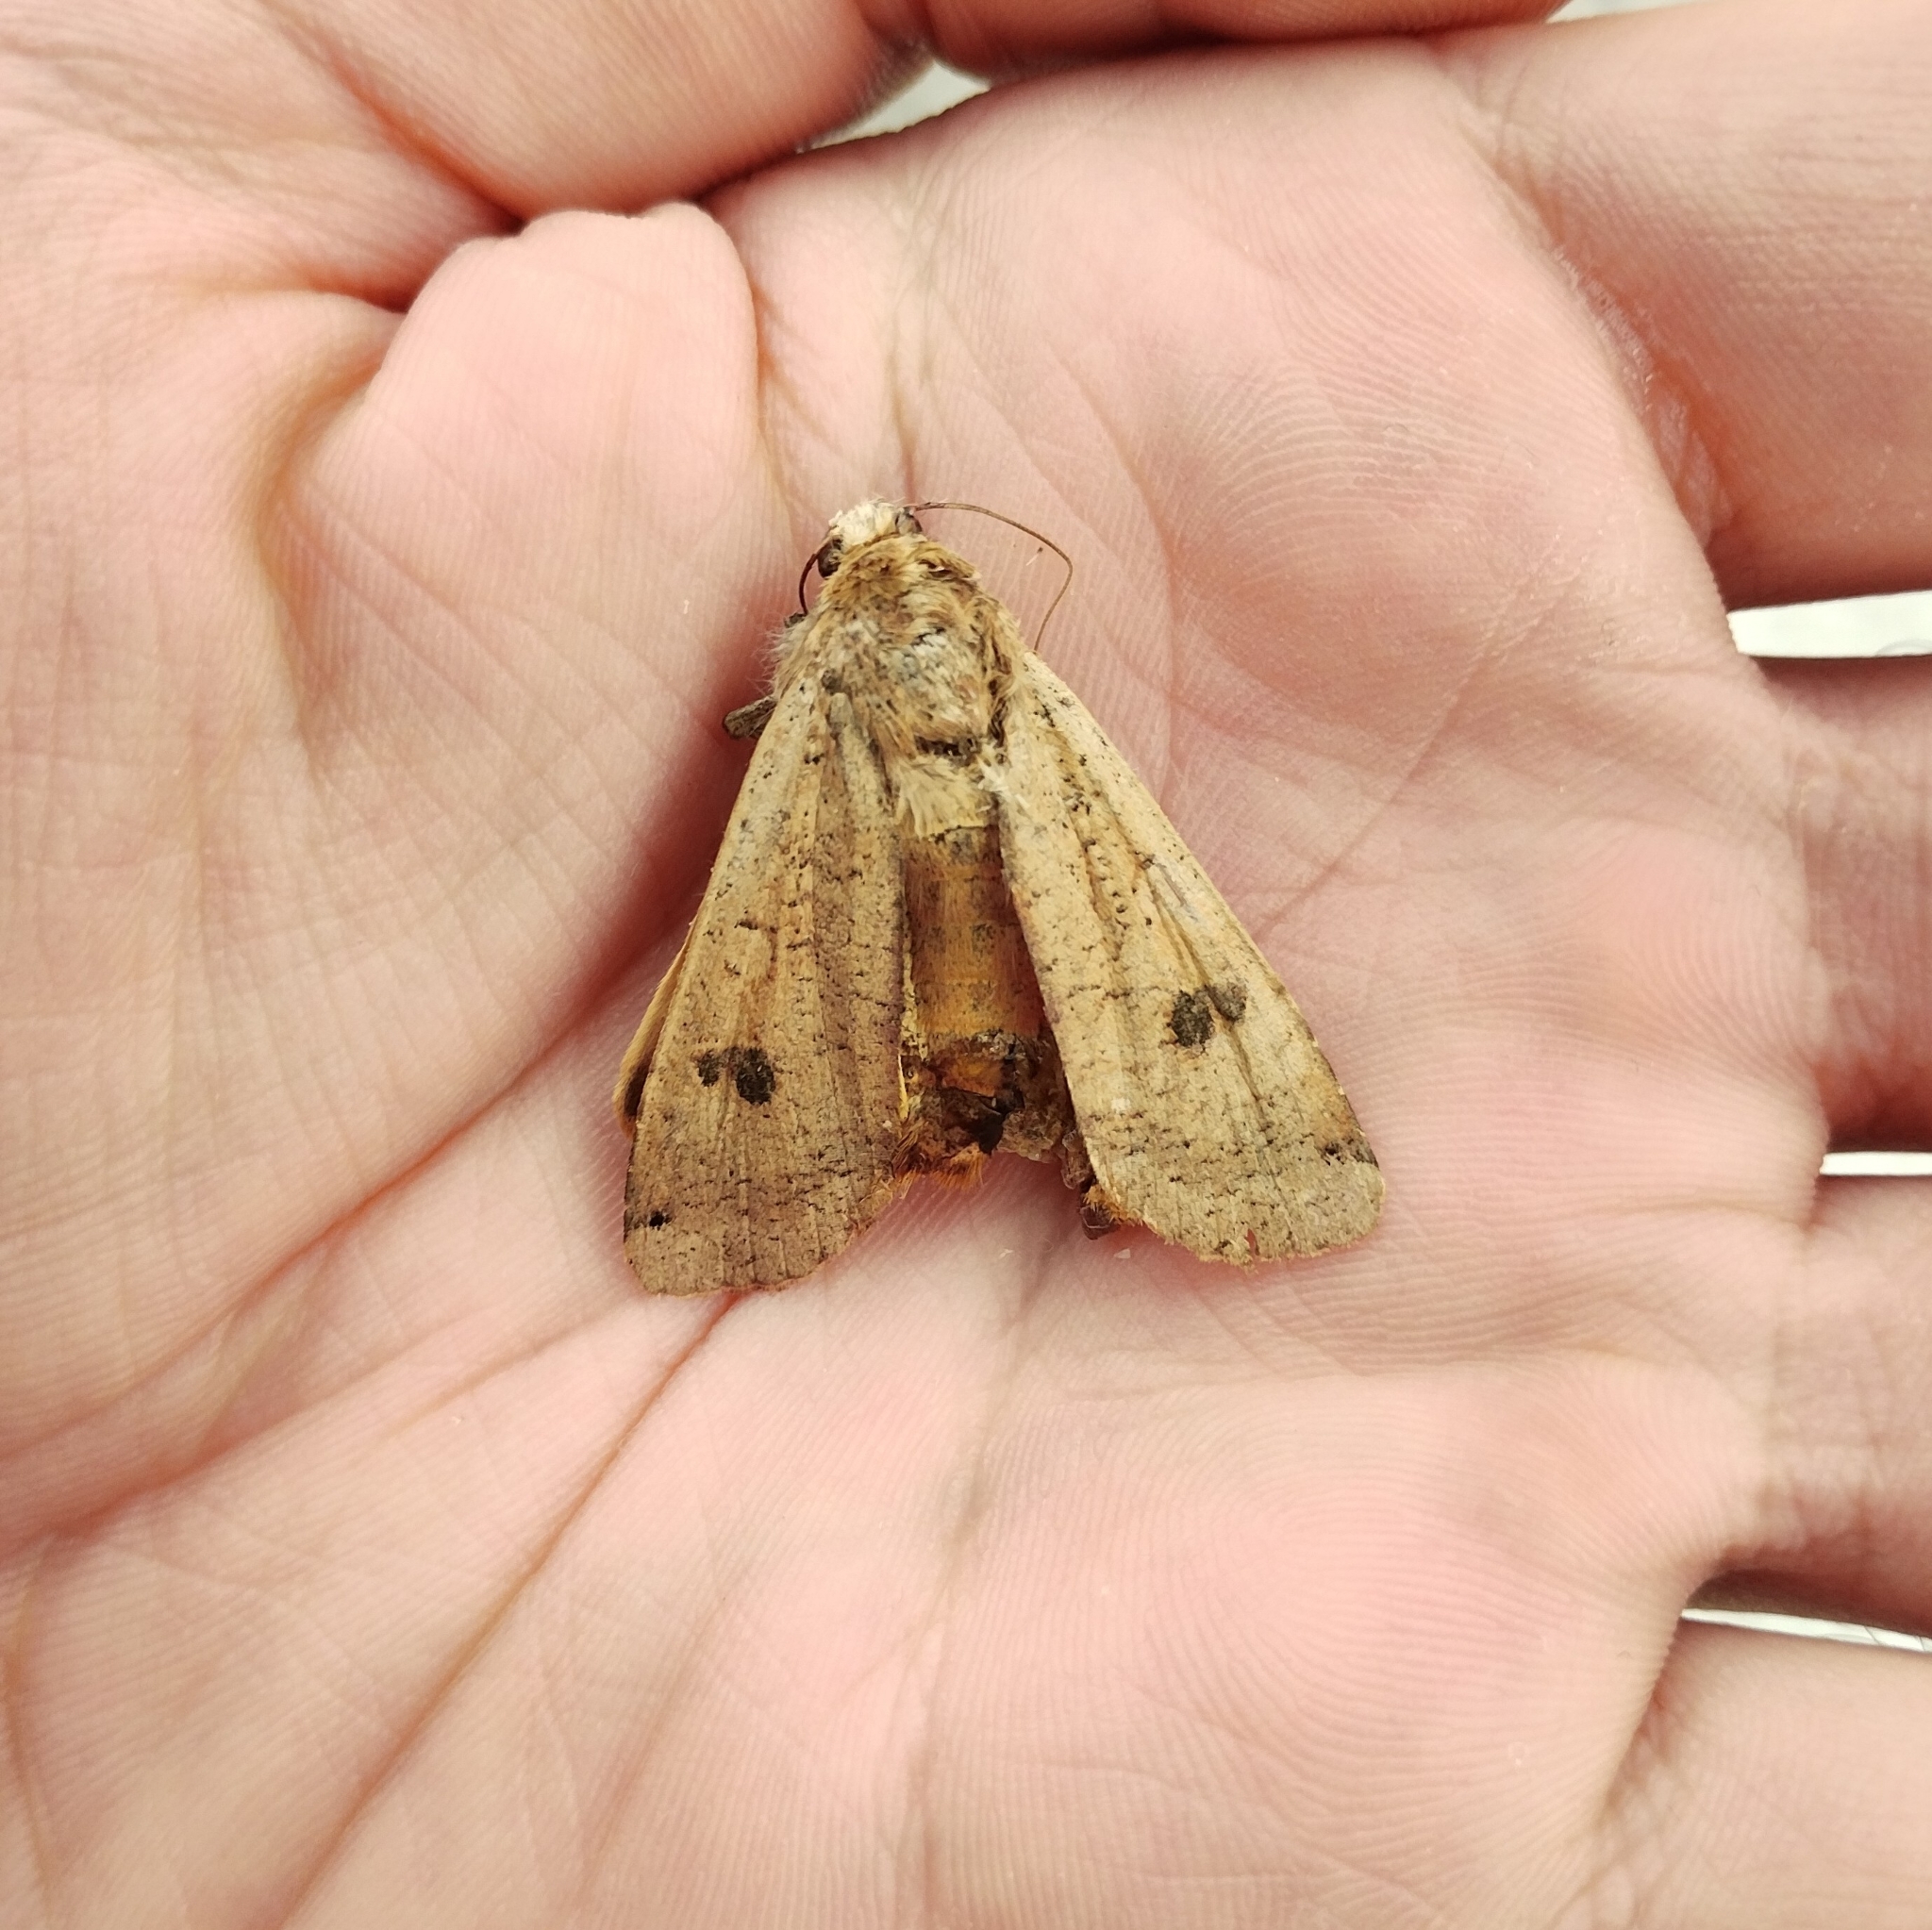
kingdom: Animalia
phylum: Arthropoda
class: Insecta
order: Lepidoptera
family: Noctuidae
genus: Noctua
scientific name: Noctua pronuba
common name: Large yellow underwing
